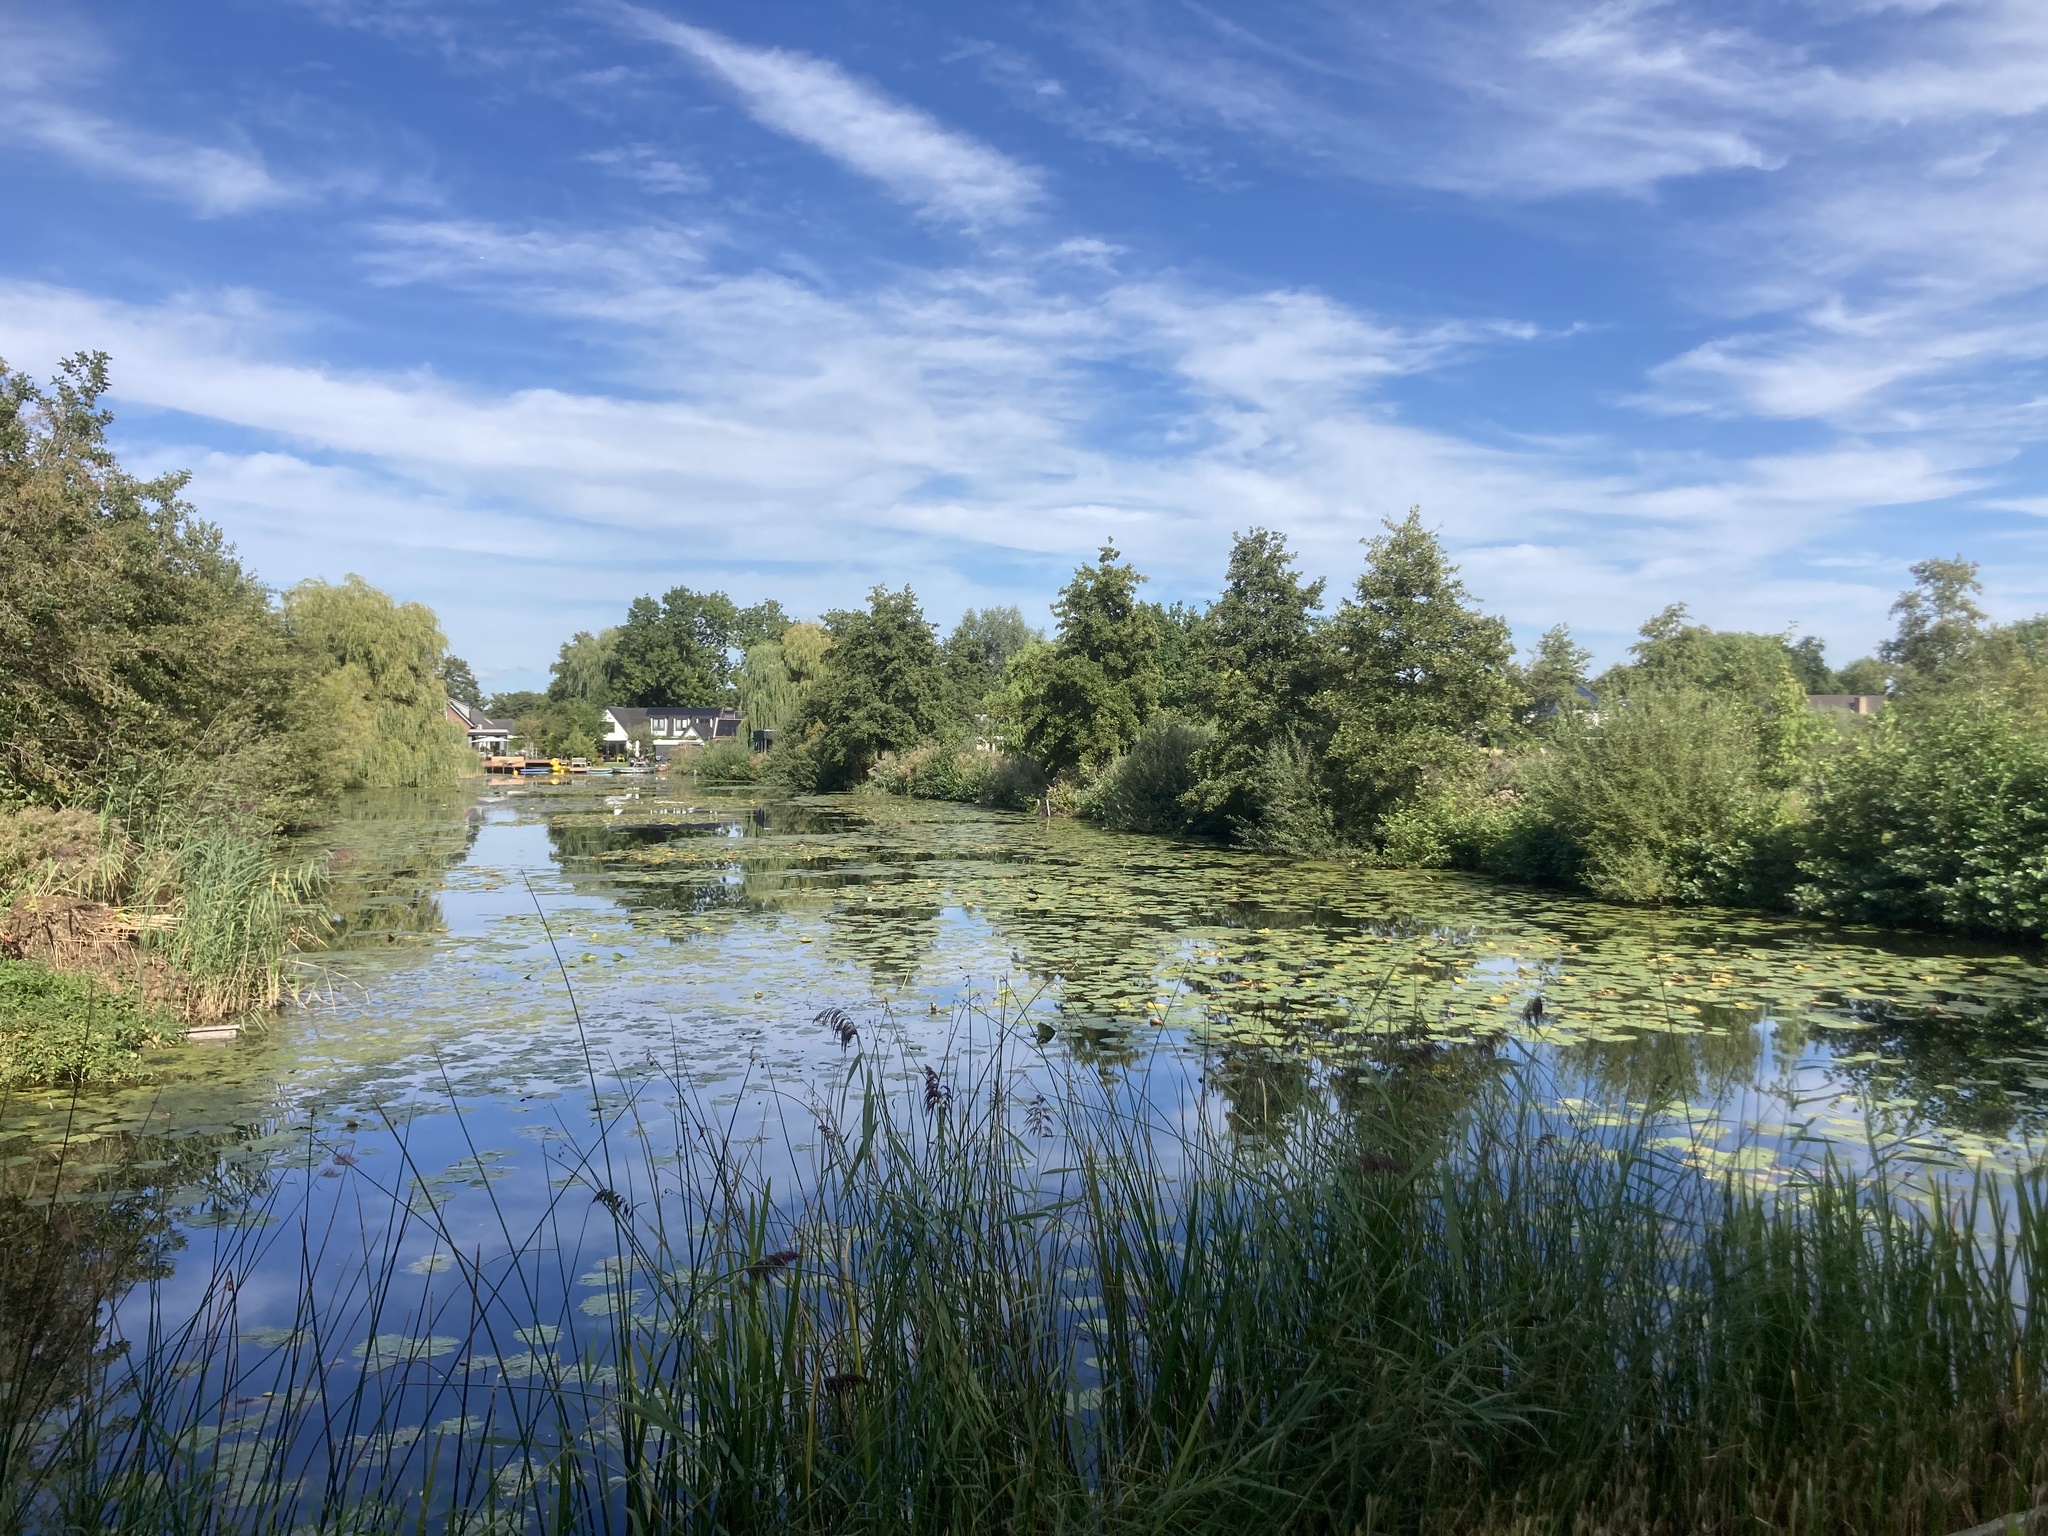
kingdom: Plantae
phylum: Tracheophyta
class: Magnoliopsida
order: Nymphaeales
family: Nymphaeaceae
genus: Nuphar
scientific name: Nuphar lutea
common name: Yellow water-lily
